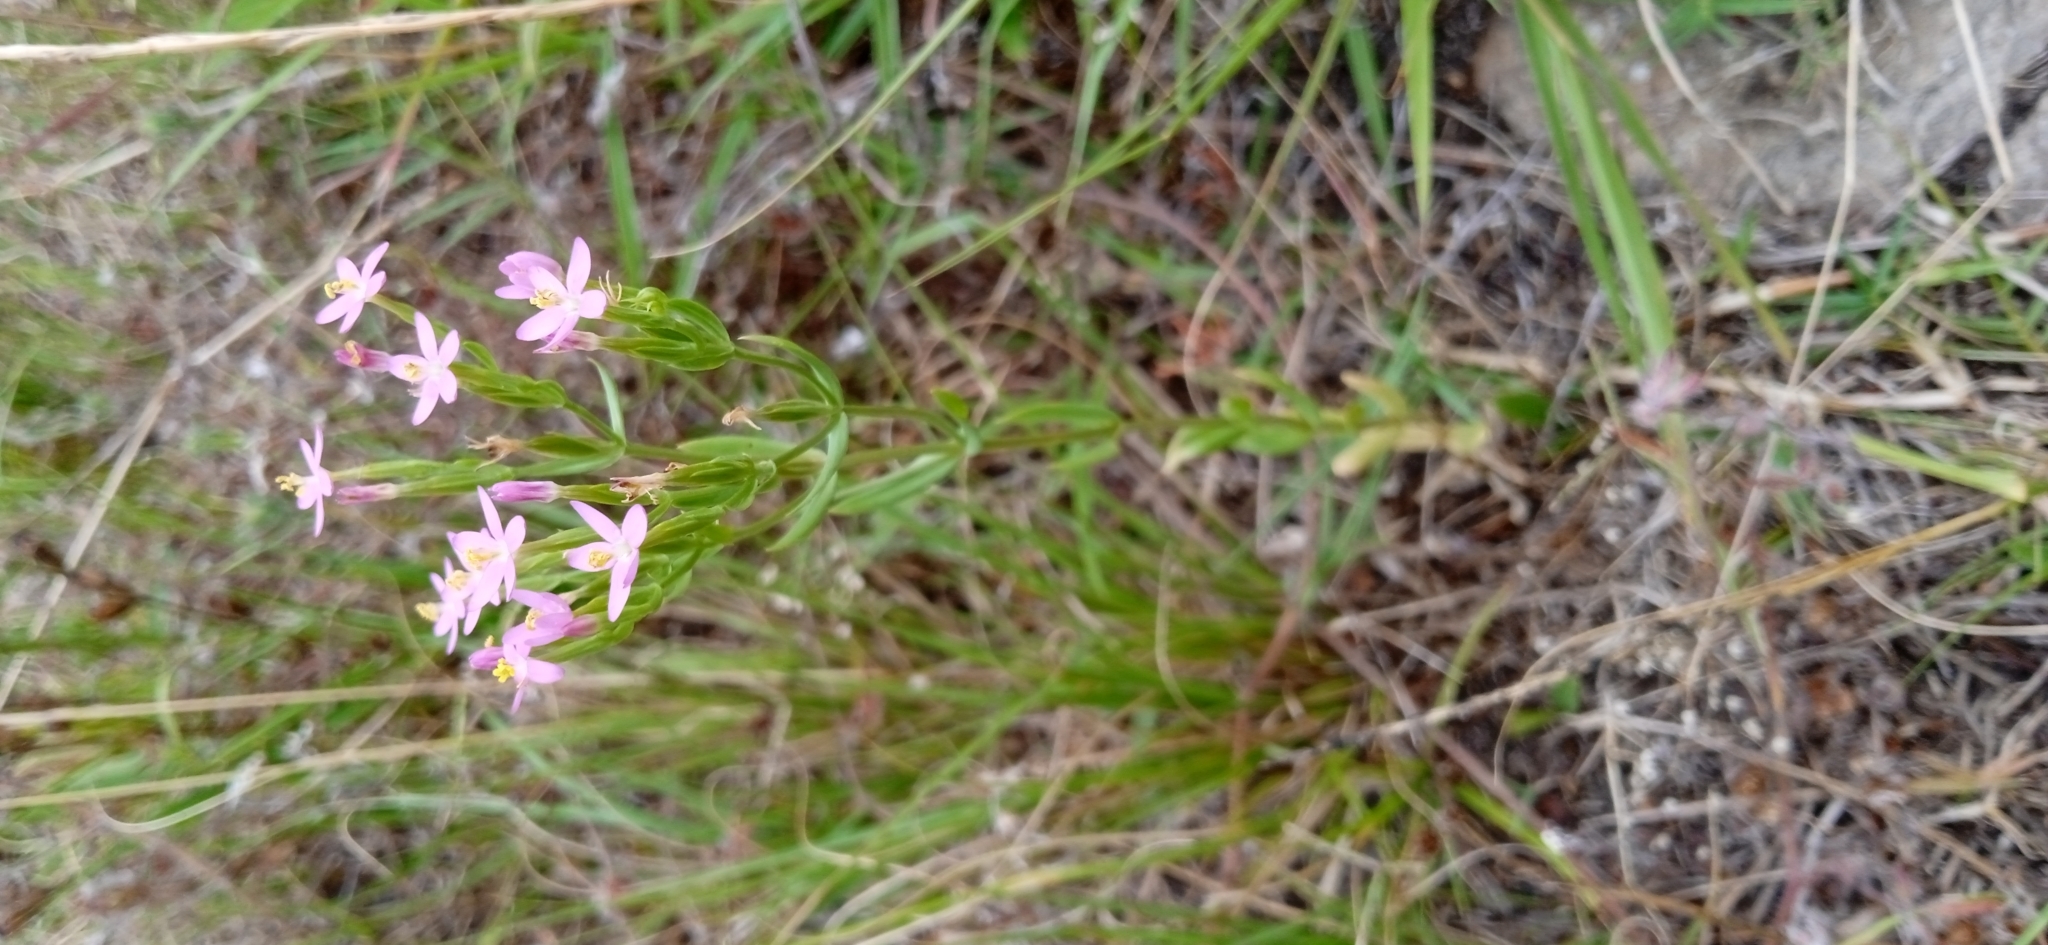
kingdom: Plantae
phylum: Tracheophyta
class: Magnoliopsida
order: Gentianales
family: Gentianaceae
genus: Centaurium
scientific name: Centaurium pulchellum
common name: Lesser centaury
